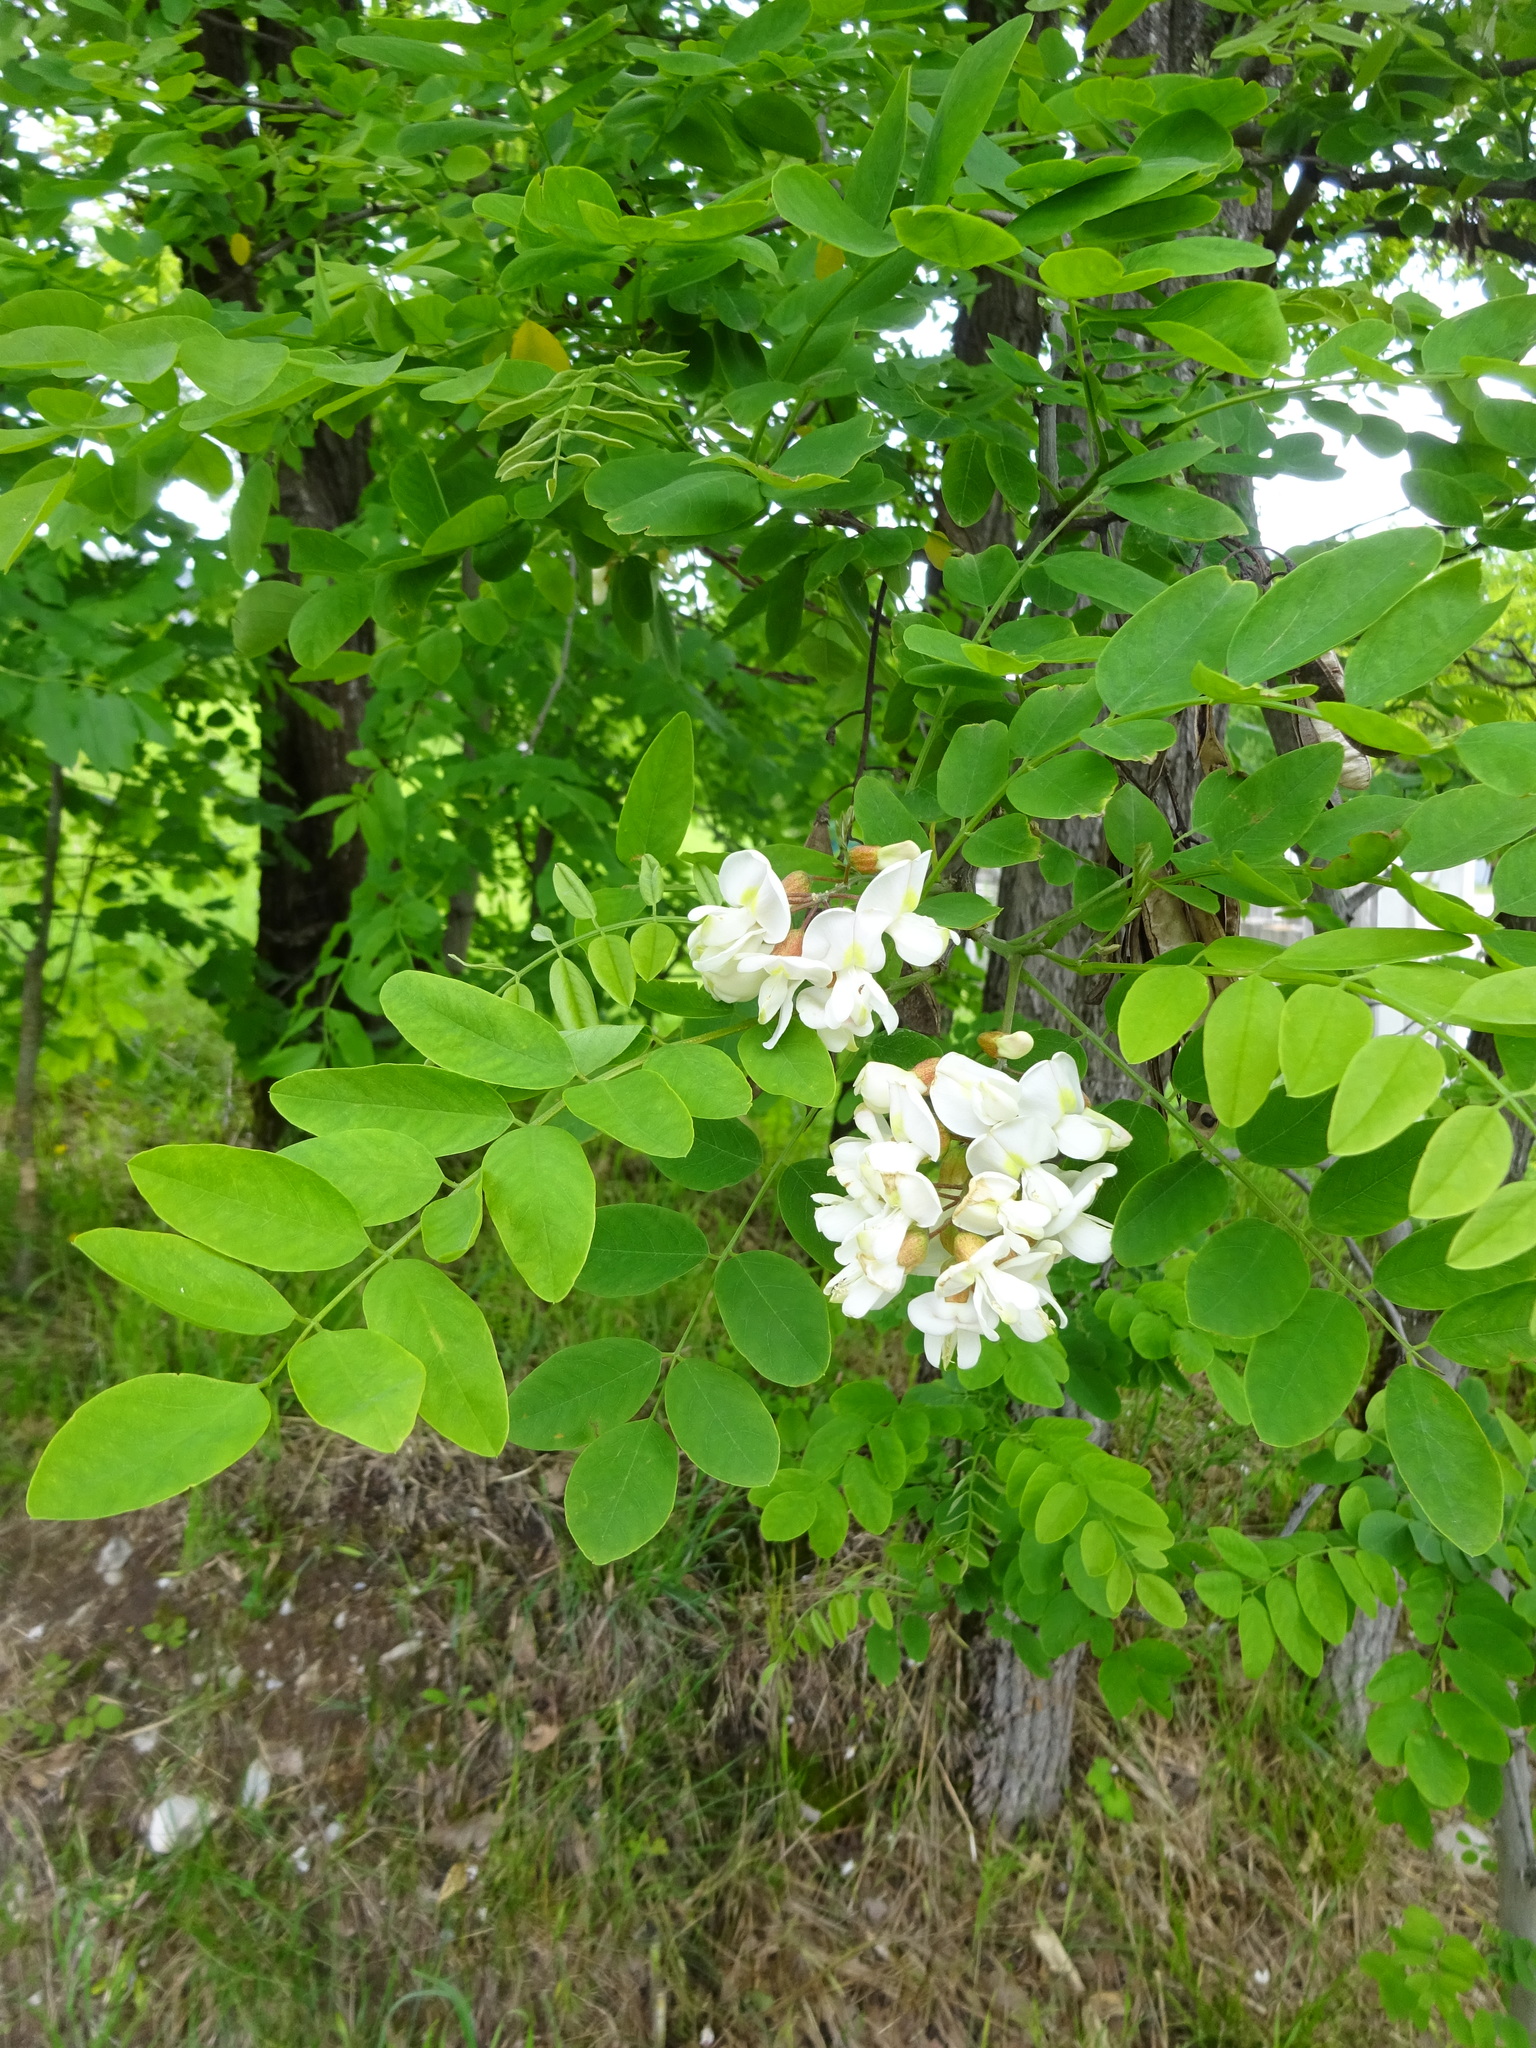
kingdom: Plantae
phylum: Tracheophyta
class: Magnoliopsida
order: Fabales
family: Fabaceae
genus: Robinia
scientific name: Robinia pseudoacacia
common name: Black locust
